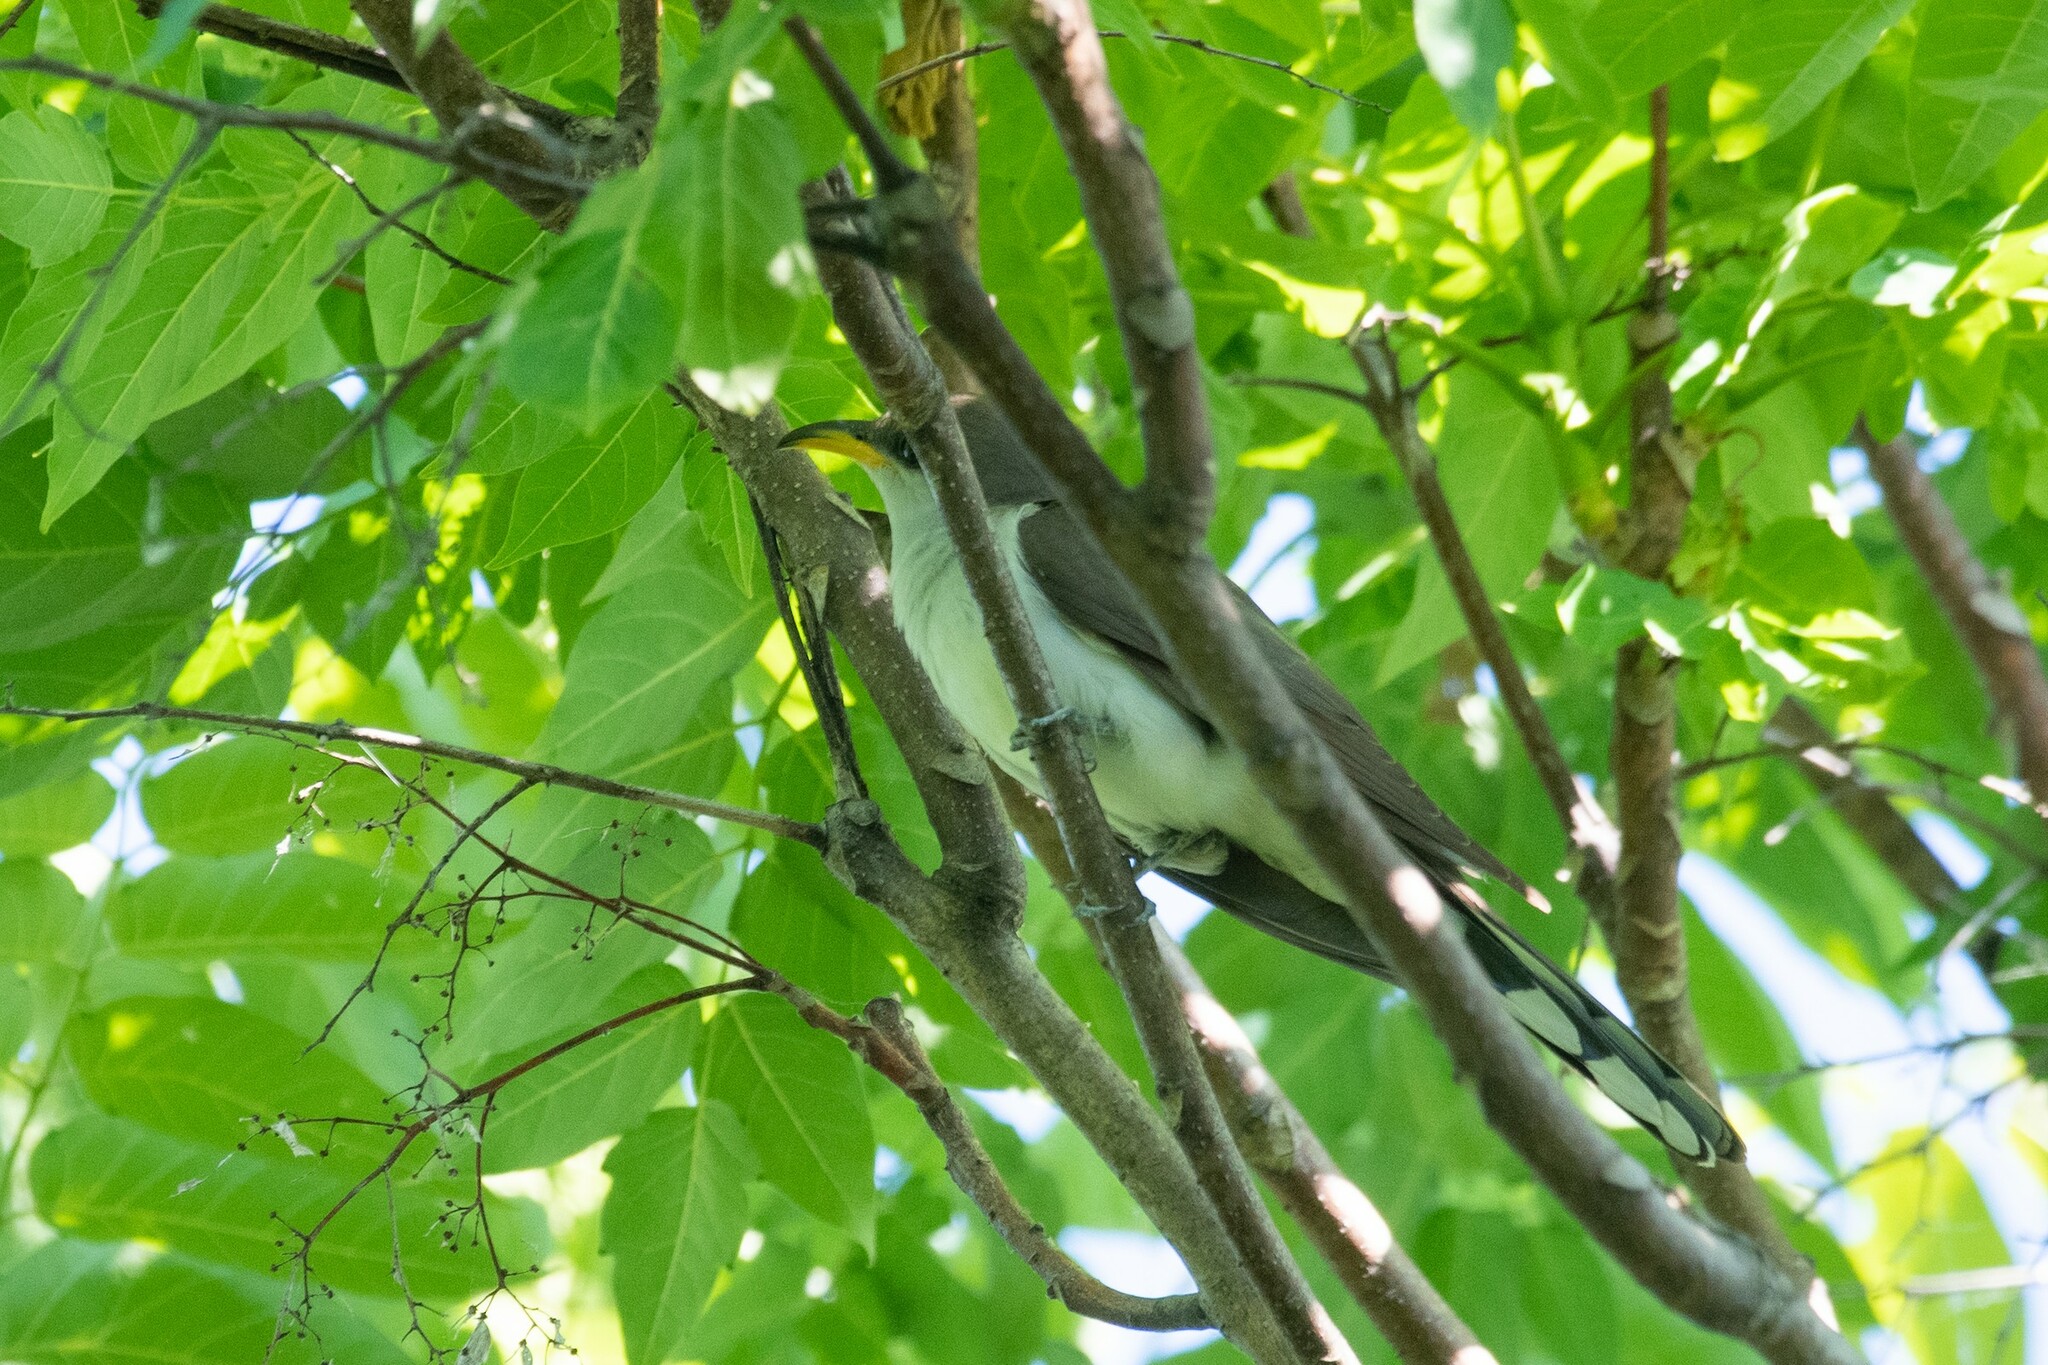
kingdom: Animalia
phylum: Chordata
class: Aves
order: Cuculiformes
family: Cuculidae
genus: Coccyzus
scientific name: Coccyzus americanus
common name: Yellow-billed cuckoo
